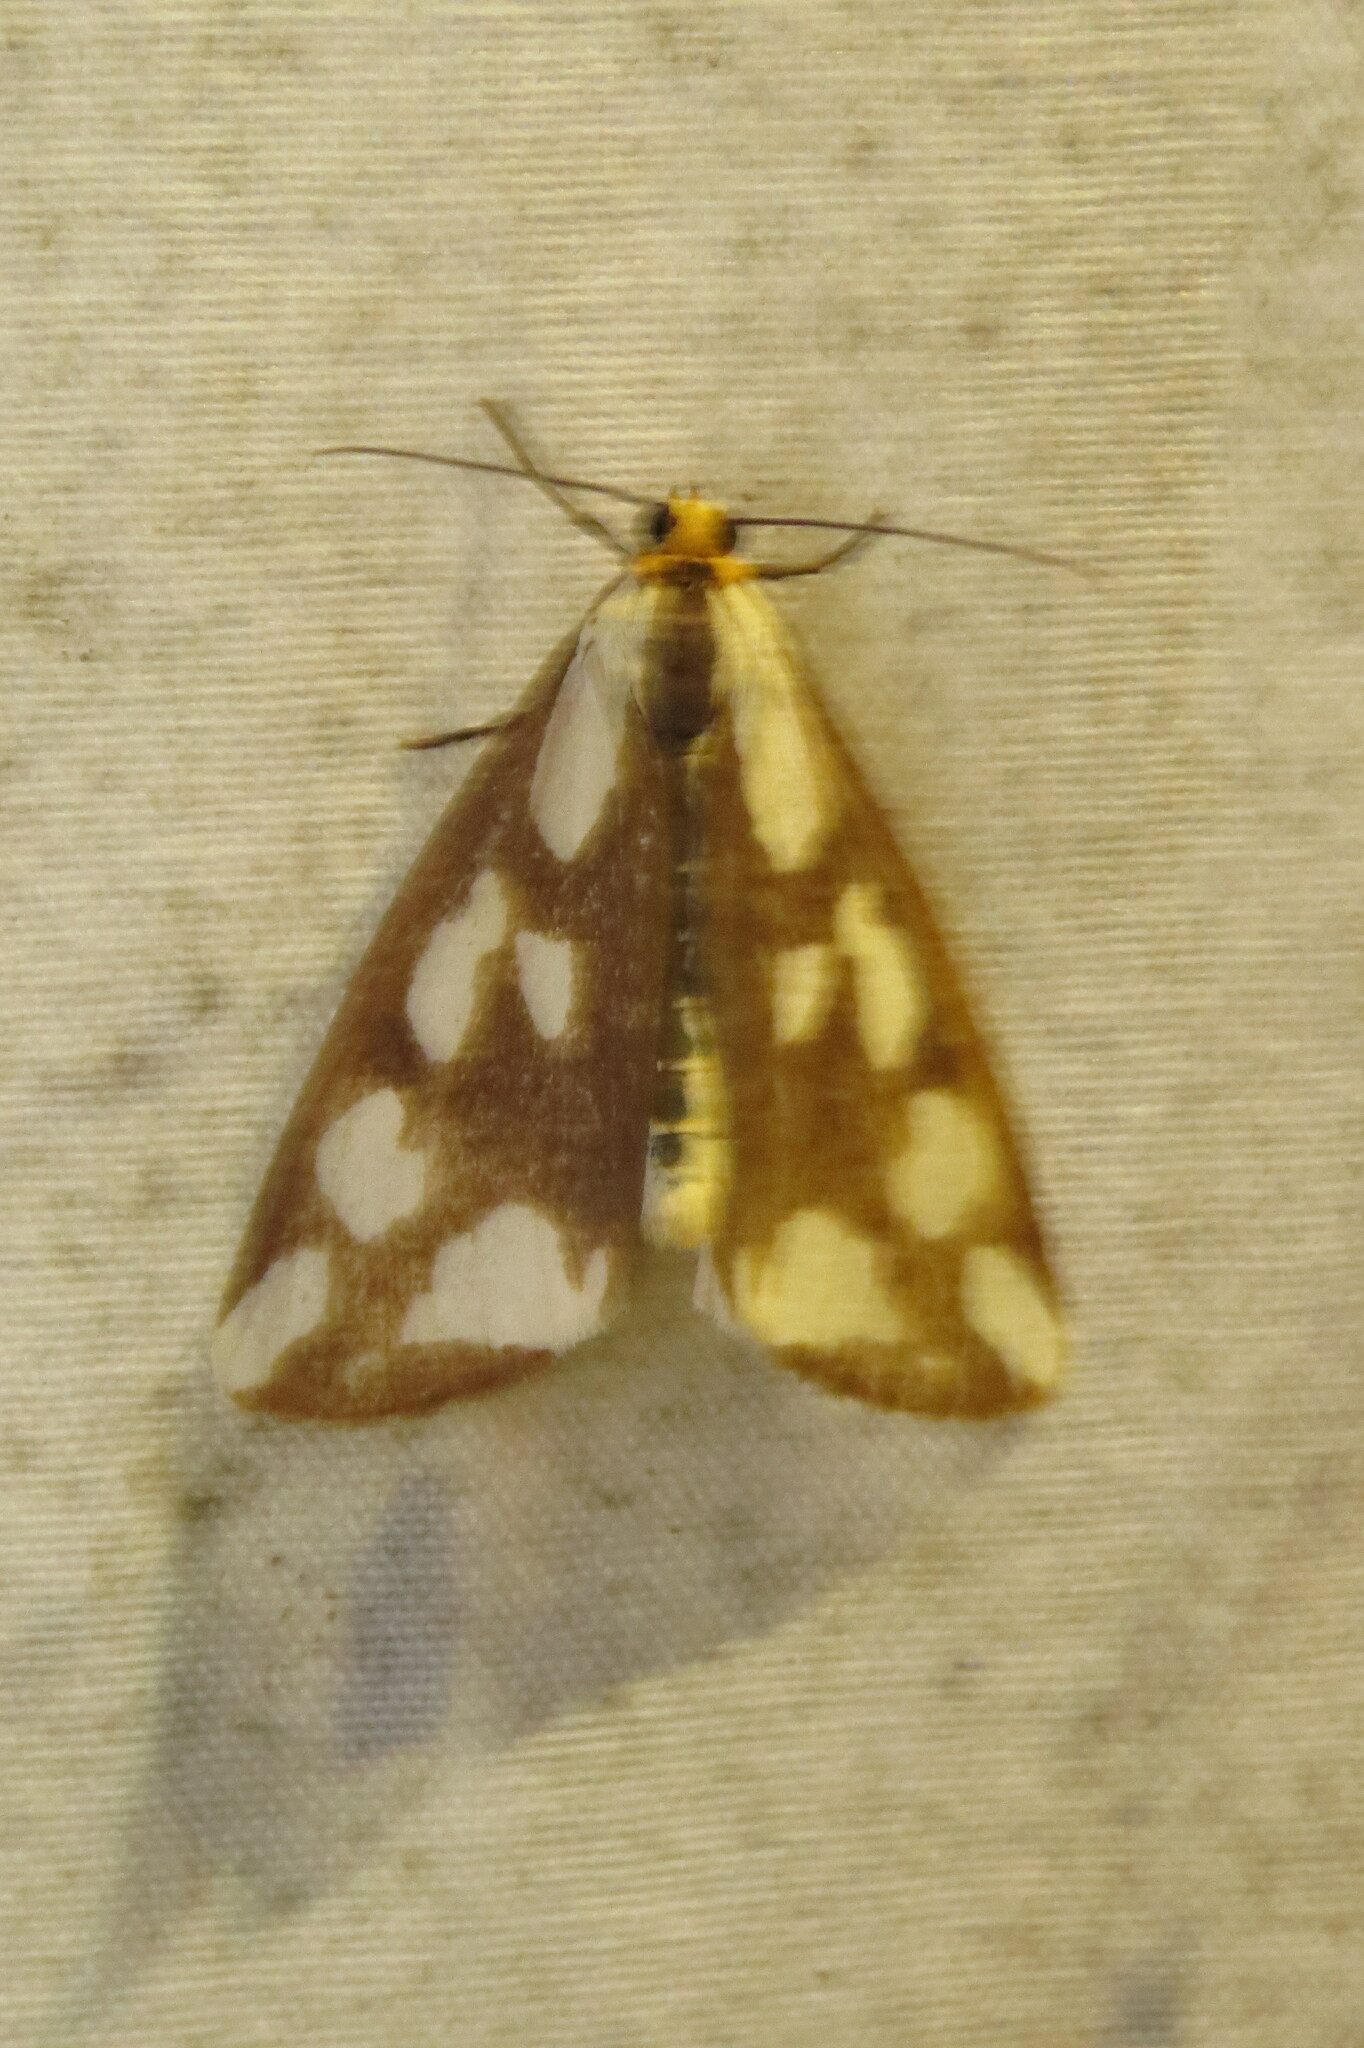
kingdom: Animalia
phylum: Arthropoda
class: Insecta
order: Lepidoptera
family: Erebidae
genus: Haploa
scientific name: Haploa confusa
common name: Confused haploa moth
